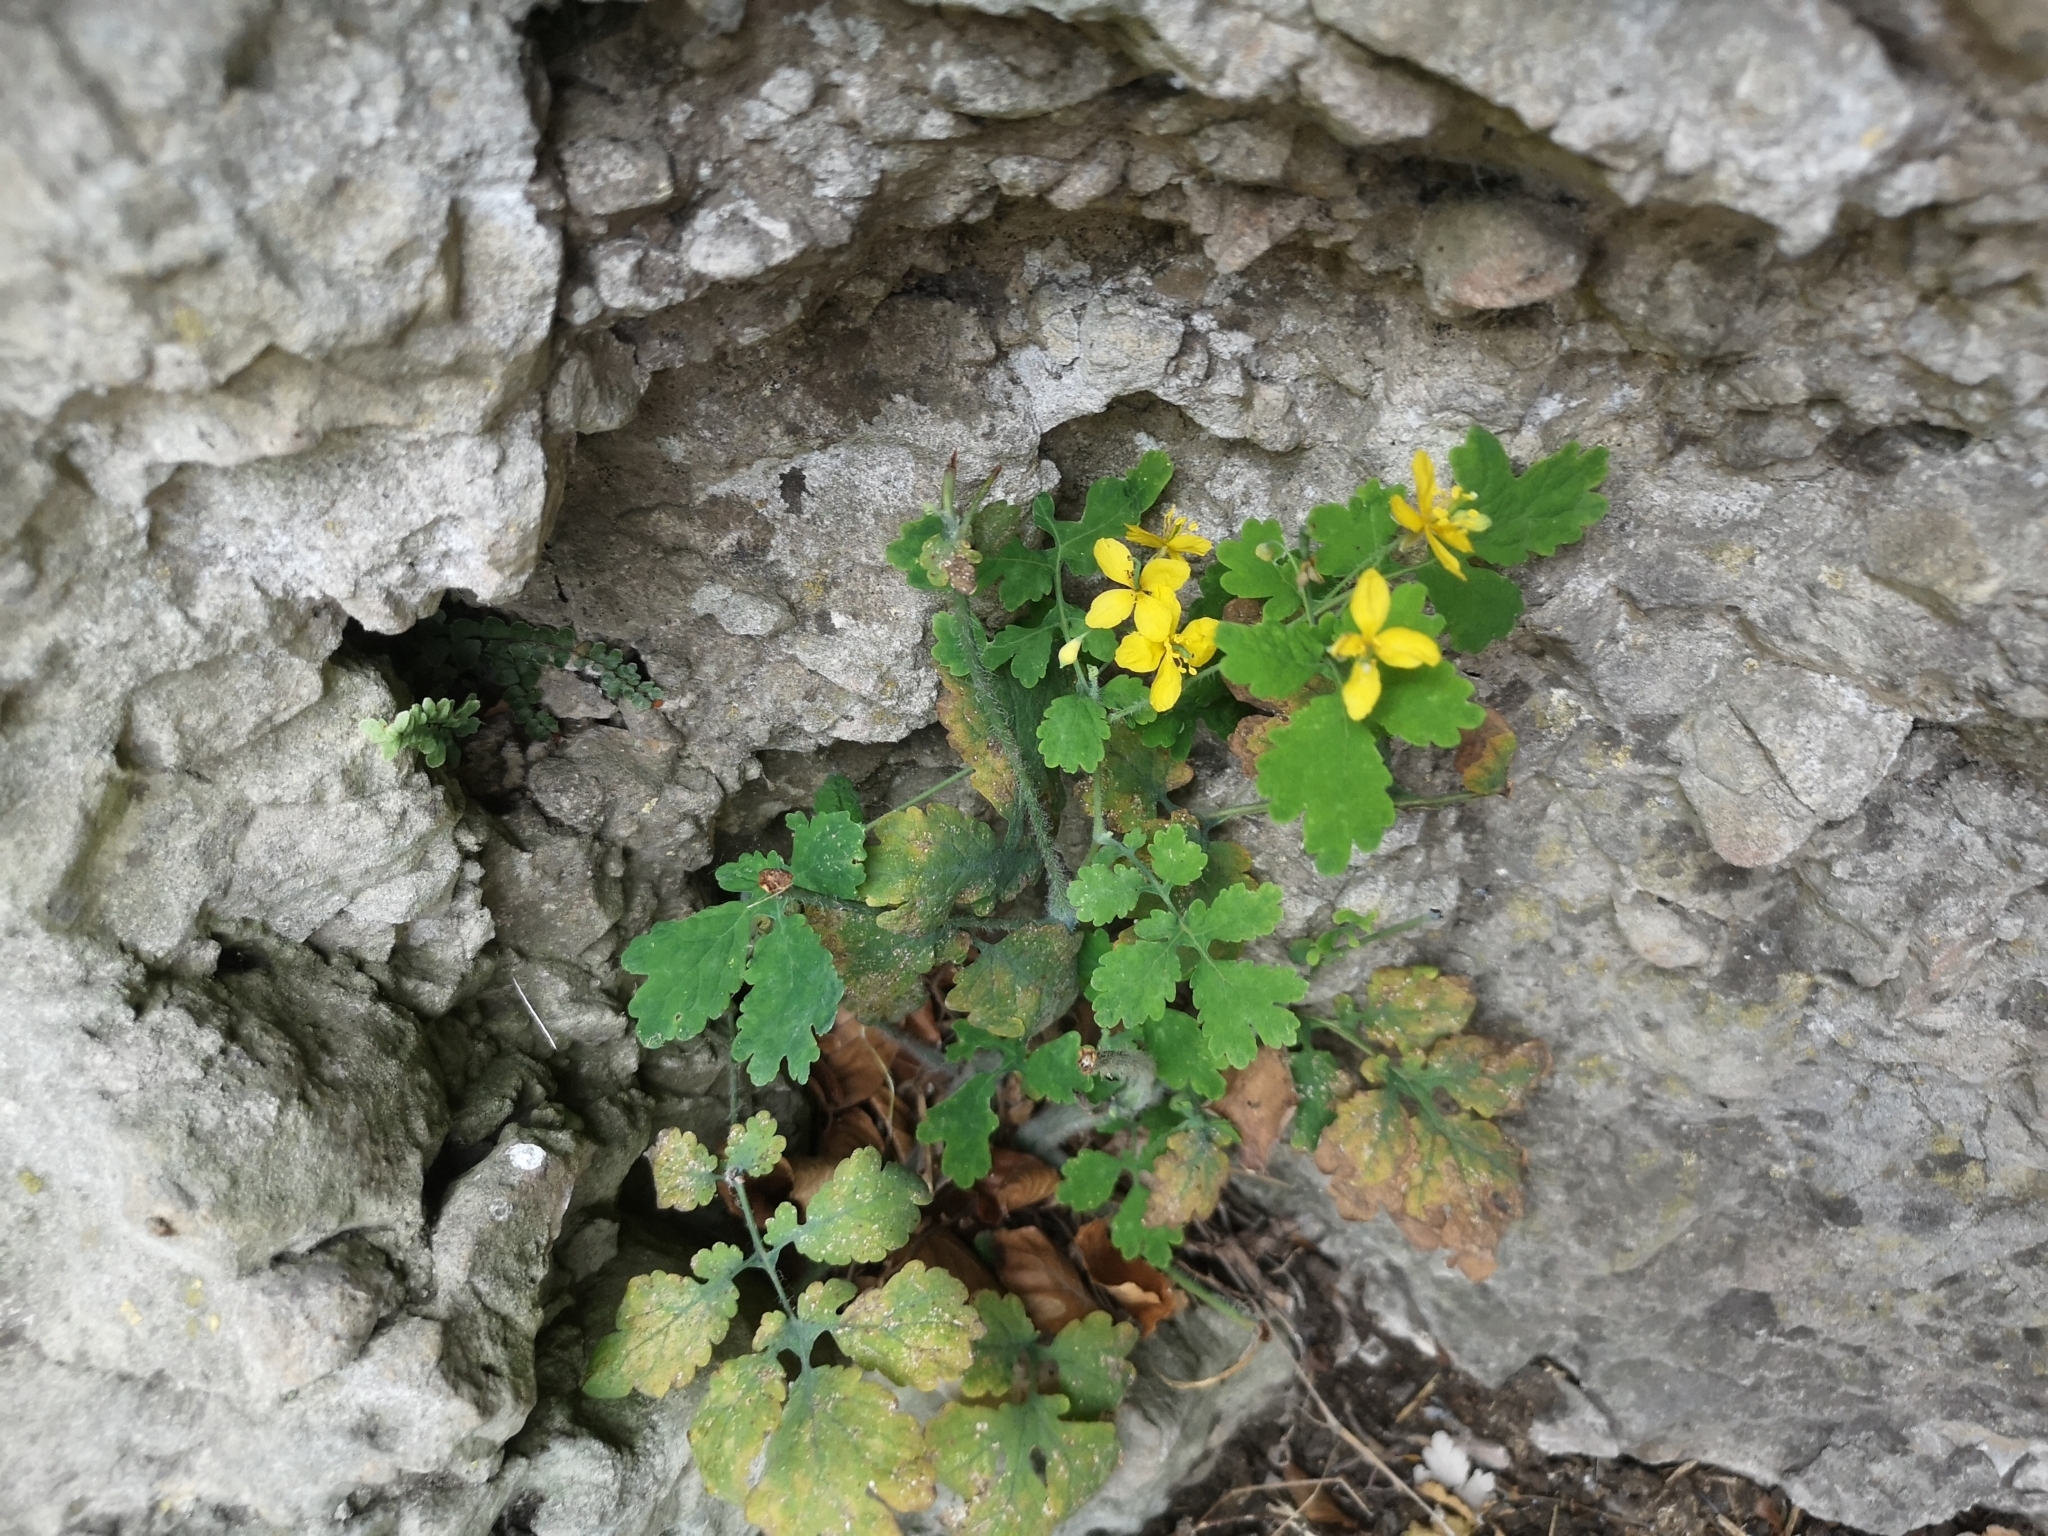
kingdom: Plantae
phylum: Tracheophyta
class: Magnoliopsida
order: Ranunculales
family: Papaveraceae
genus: Chelidonium
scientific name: Chelidonium majus
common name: Greater celandine
